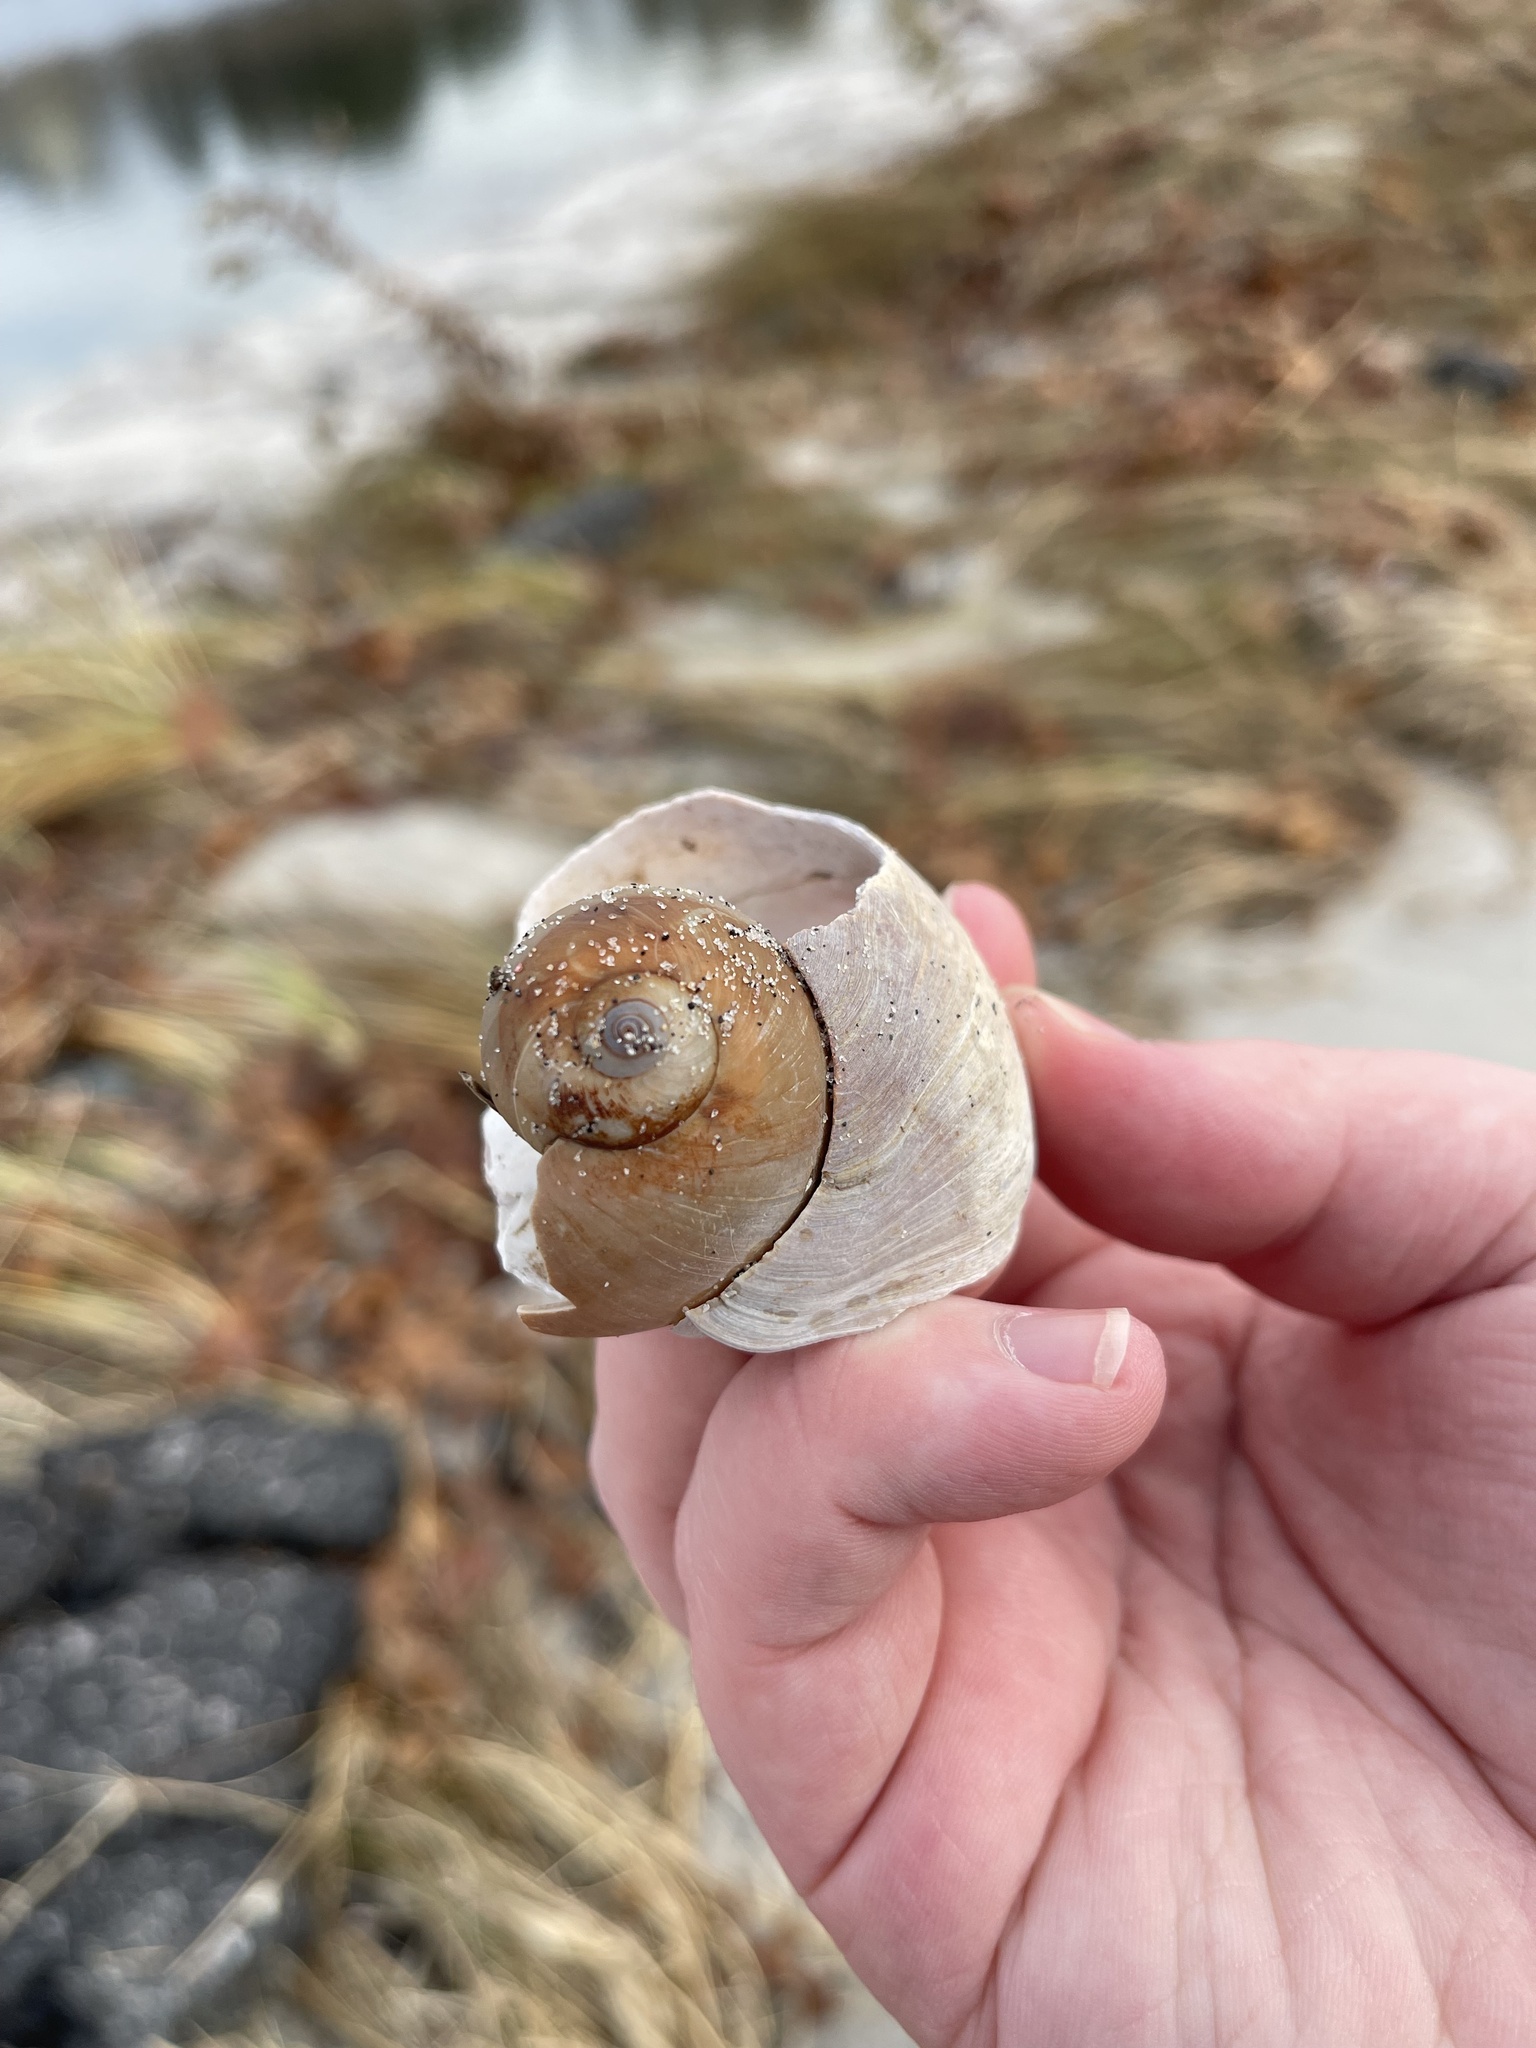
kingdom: Animalia
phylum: Mollusca
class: Gastropoda
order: Littorinimorpha
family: Naticidae
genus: Euspira
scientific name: Euspira heros
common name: Common northern moonsnail
